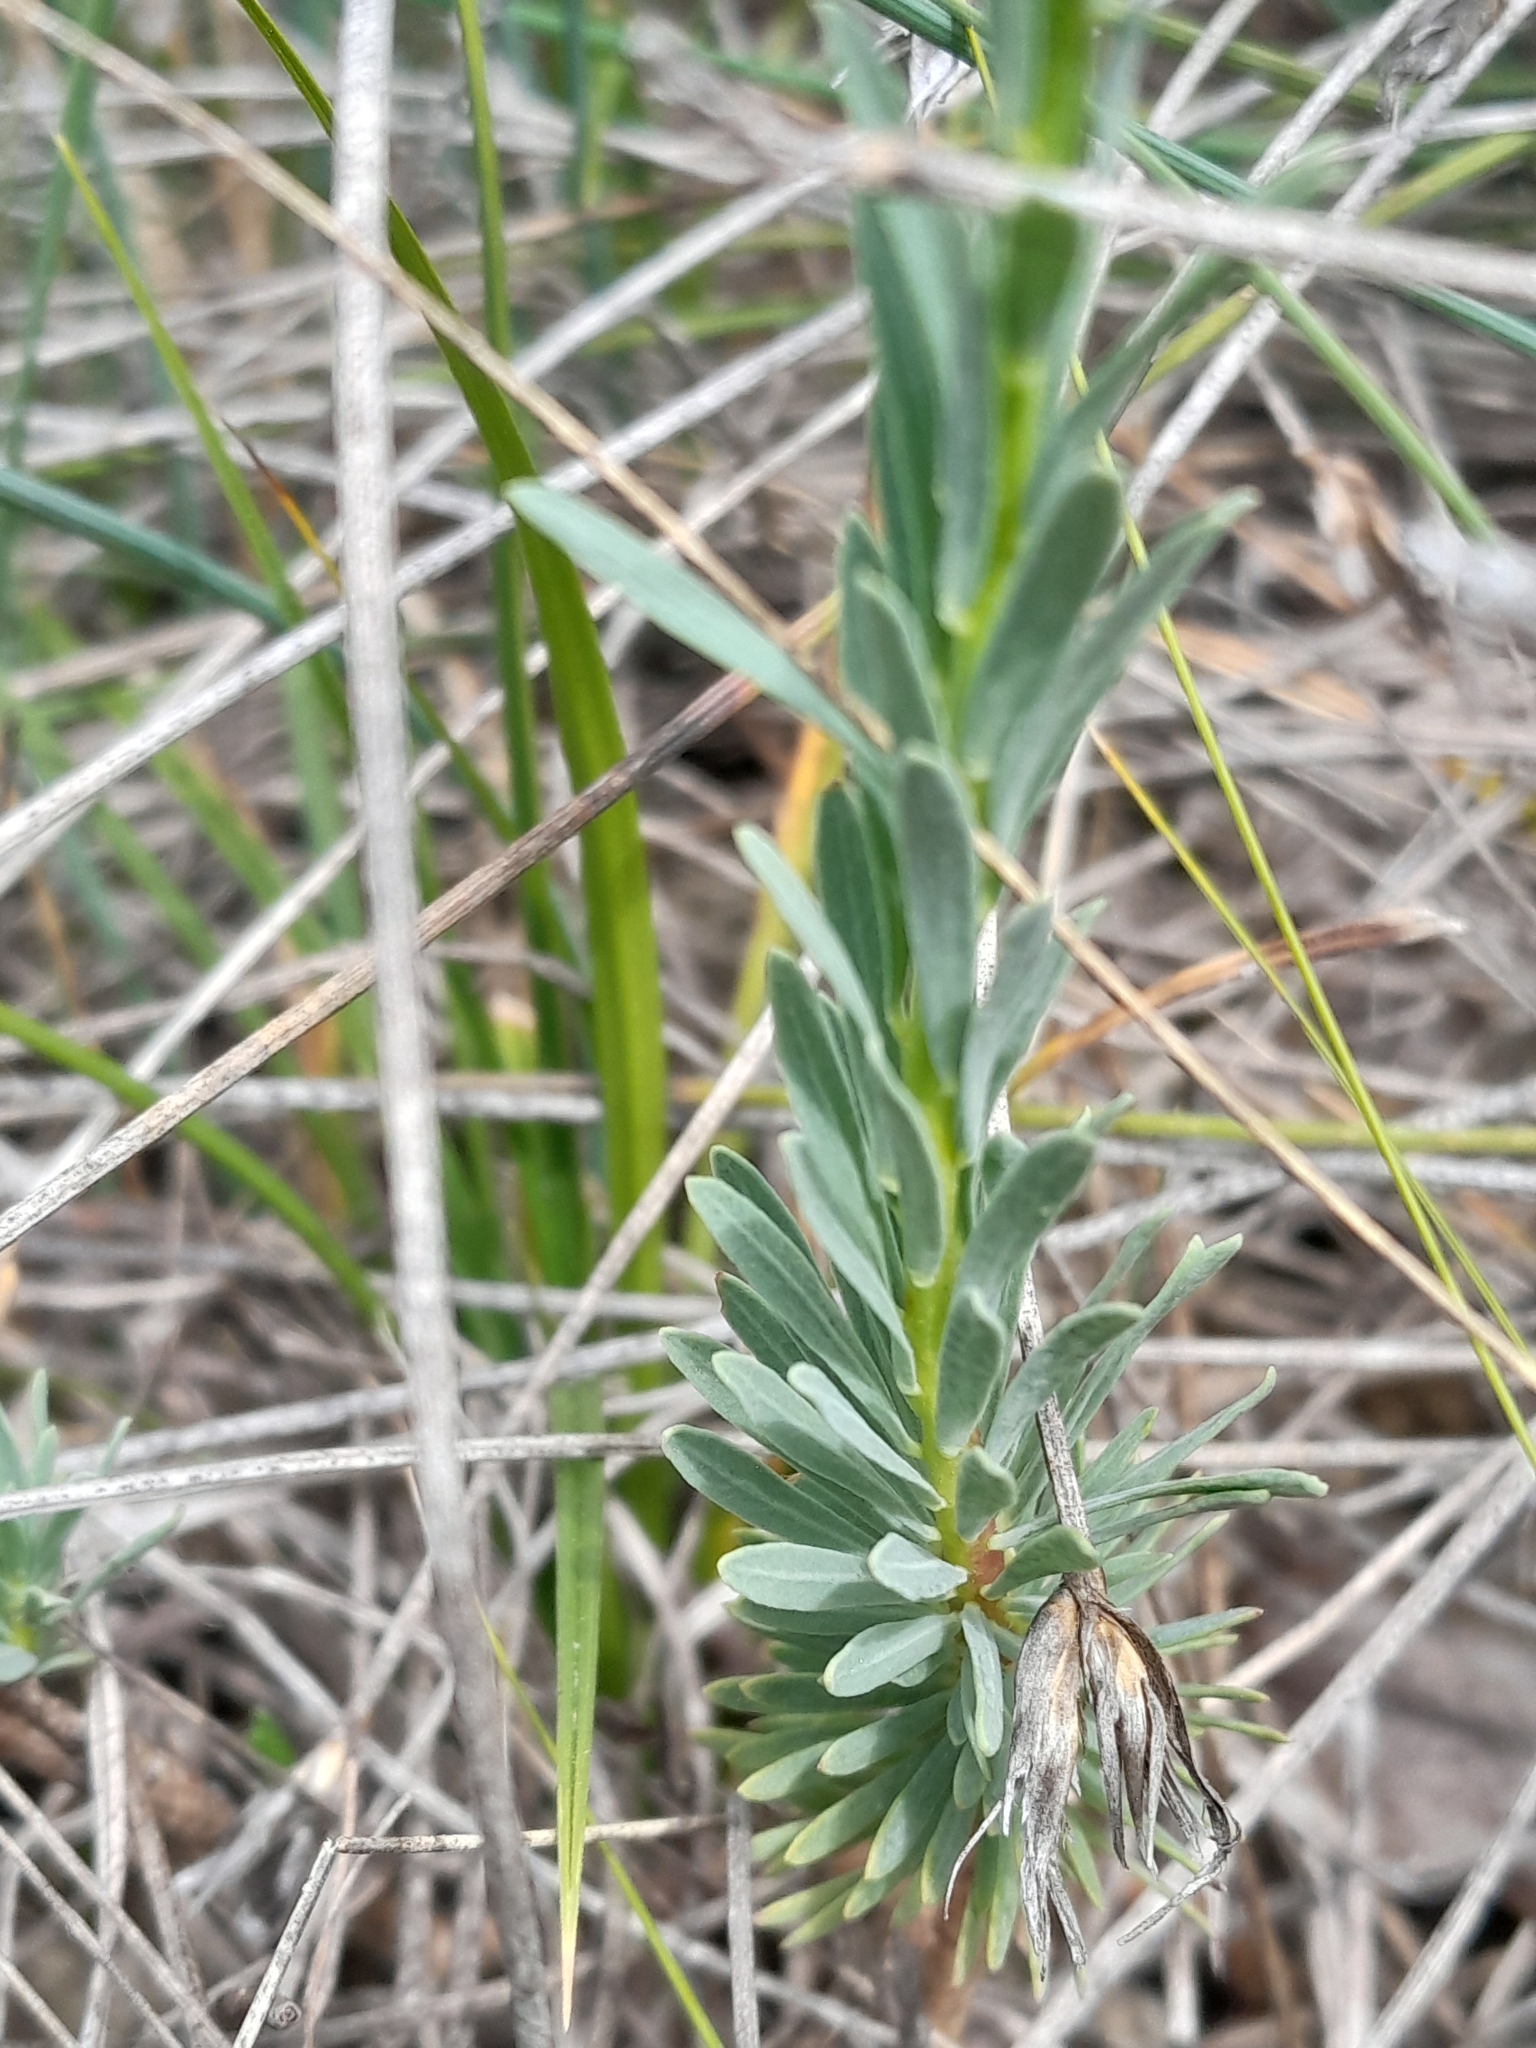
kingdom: Plantae
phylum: Tracheophyta
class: Magnoliopsida
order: Malvales
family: Thymelaeaceae
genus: Thymelaea
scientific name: Thymelaea pubescens
